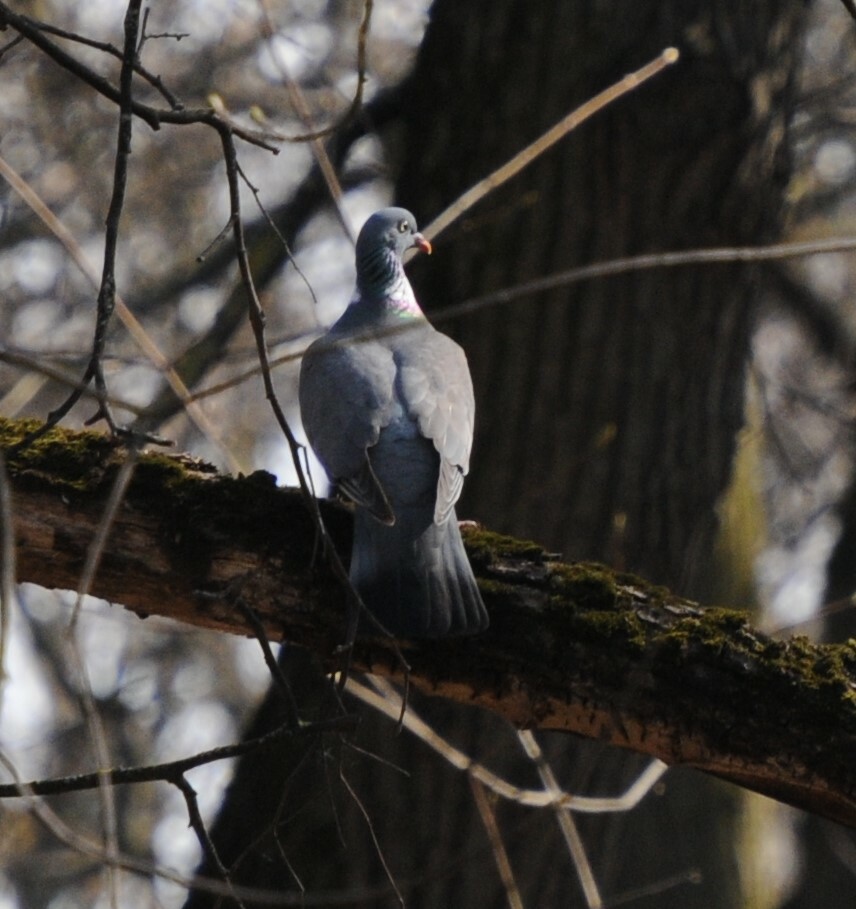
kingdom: Animalia
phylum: Chordata
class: Aves
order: Columbiformes
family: Columbidae
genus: Columba
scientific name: Columba palumbus
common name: Common wood pigeon
